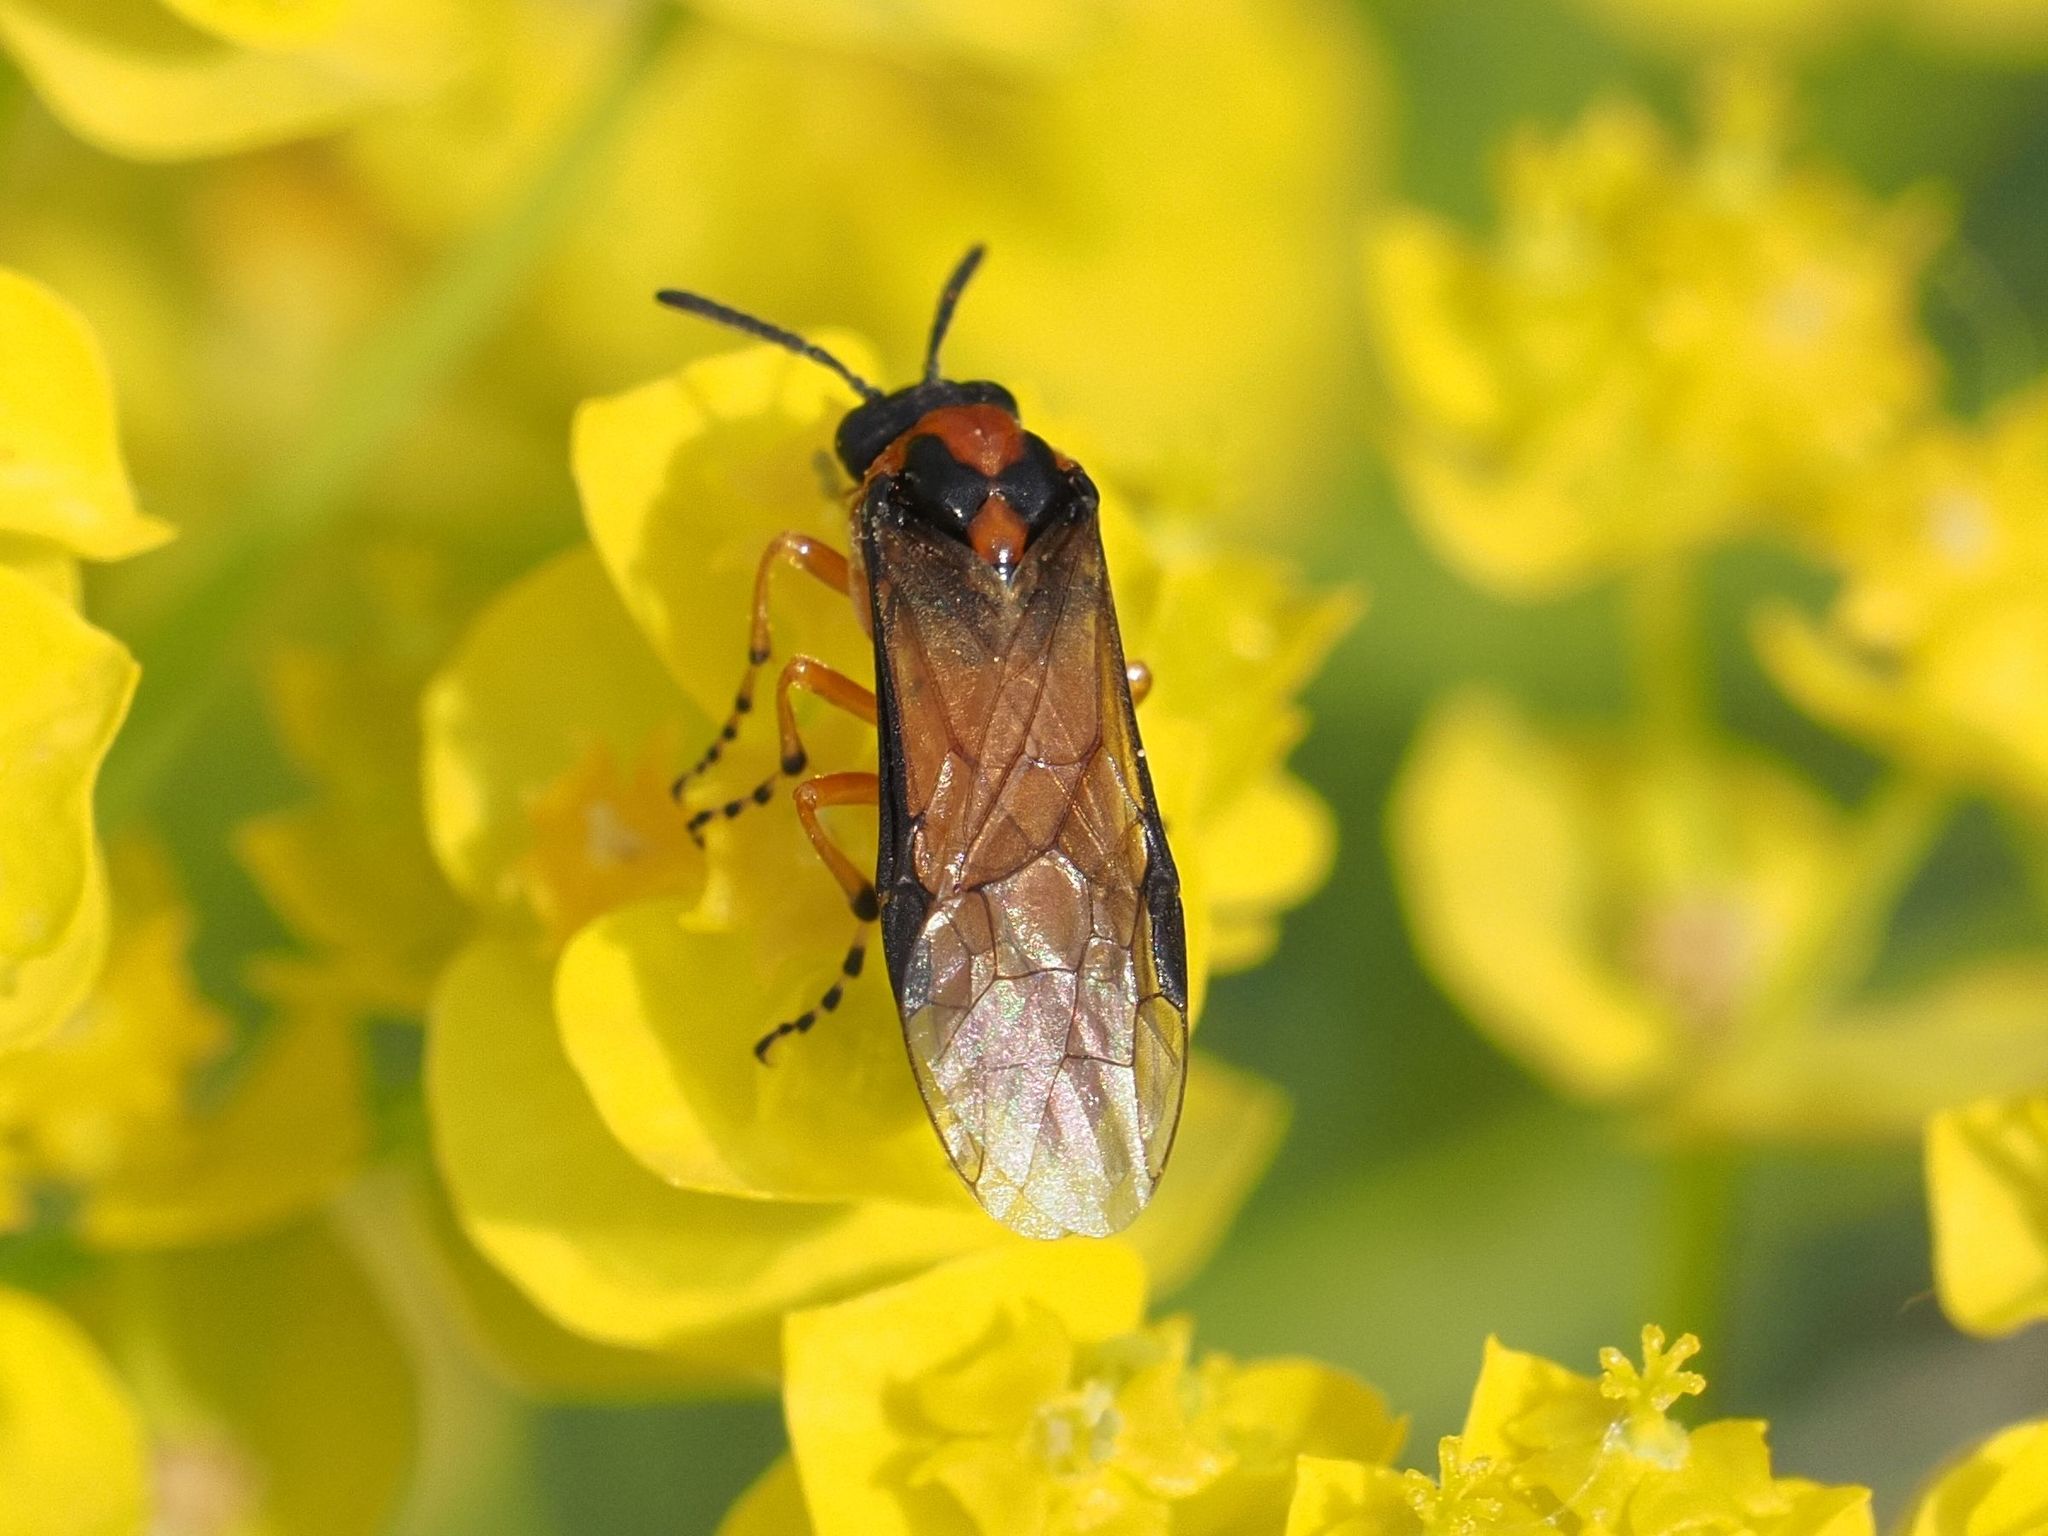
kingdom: Animalia
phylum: Arthropoda
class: Insecta
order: Hymenoptera
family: Tenthredinidae
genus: Athalia
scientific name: Athalia rosae
